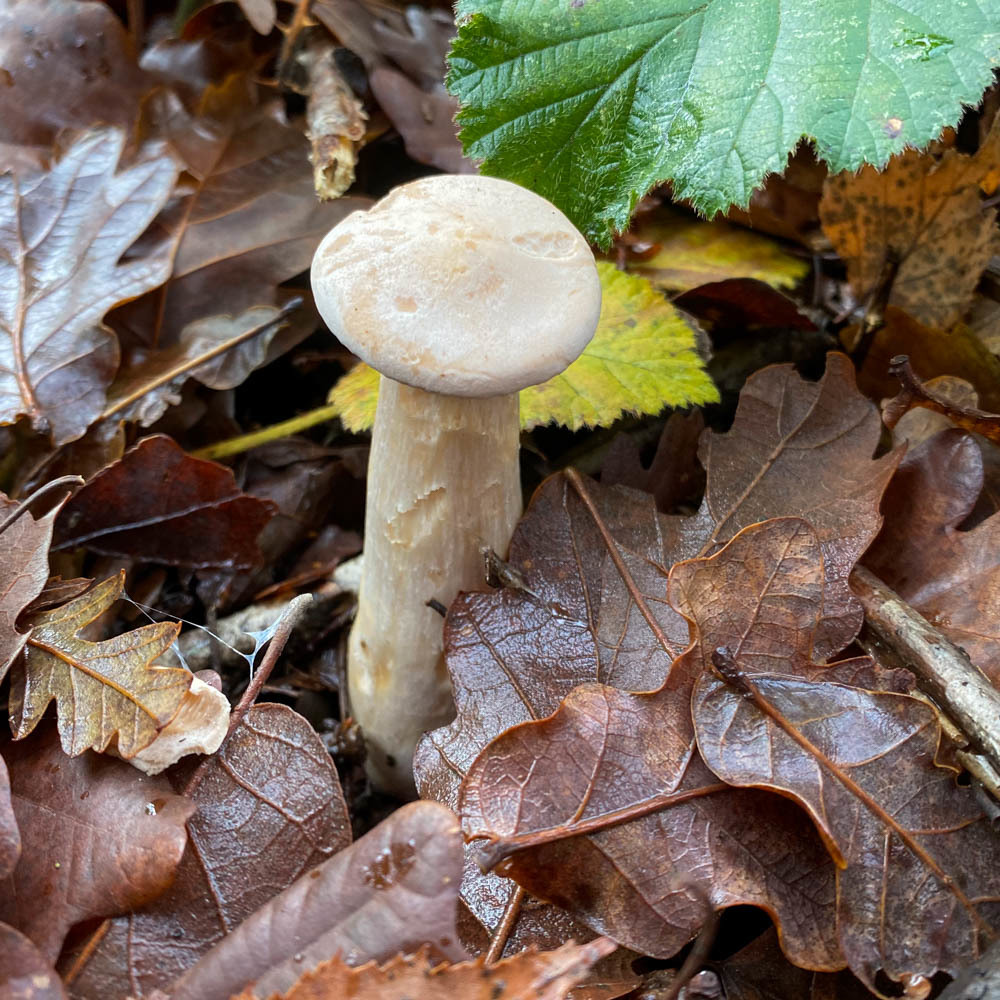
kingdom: Fungi
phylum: Basidiomycota
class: Agaricomycetes
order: Agaricales
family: Tricholomataceae
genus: Infundibulicybe
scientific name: Infundibulicybe geotropa
